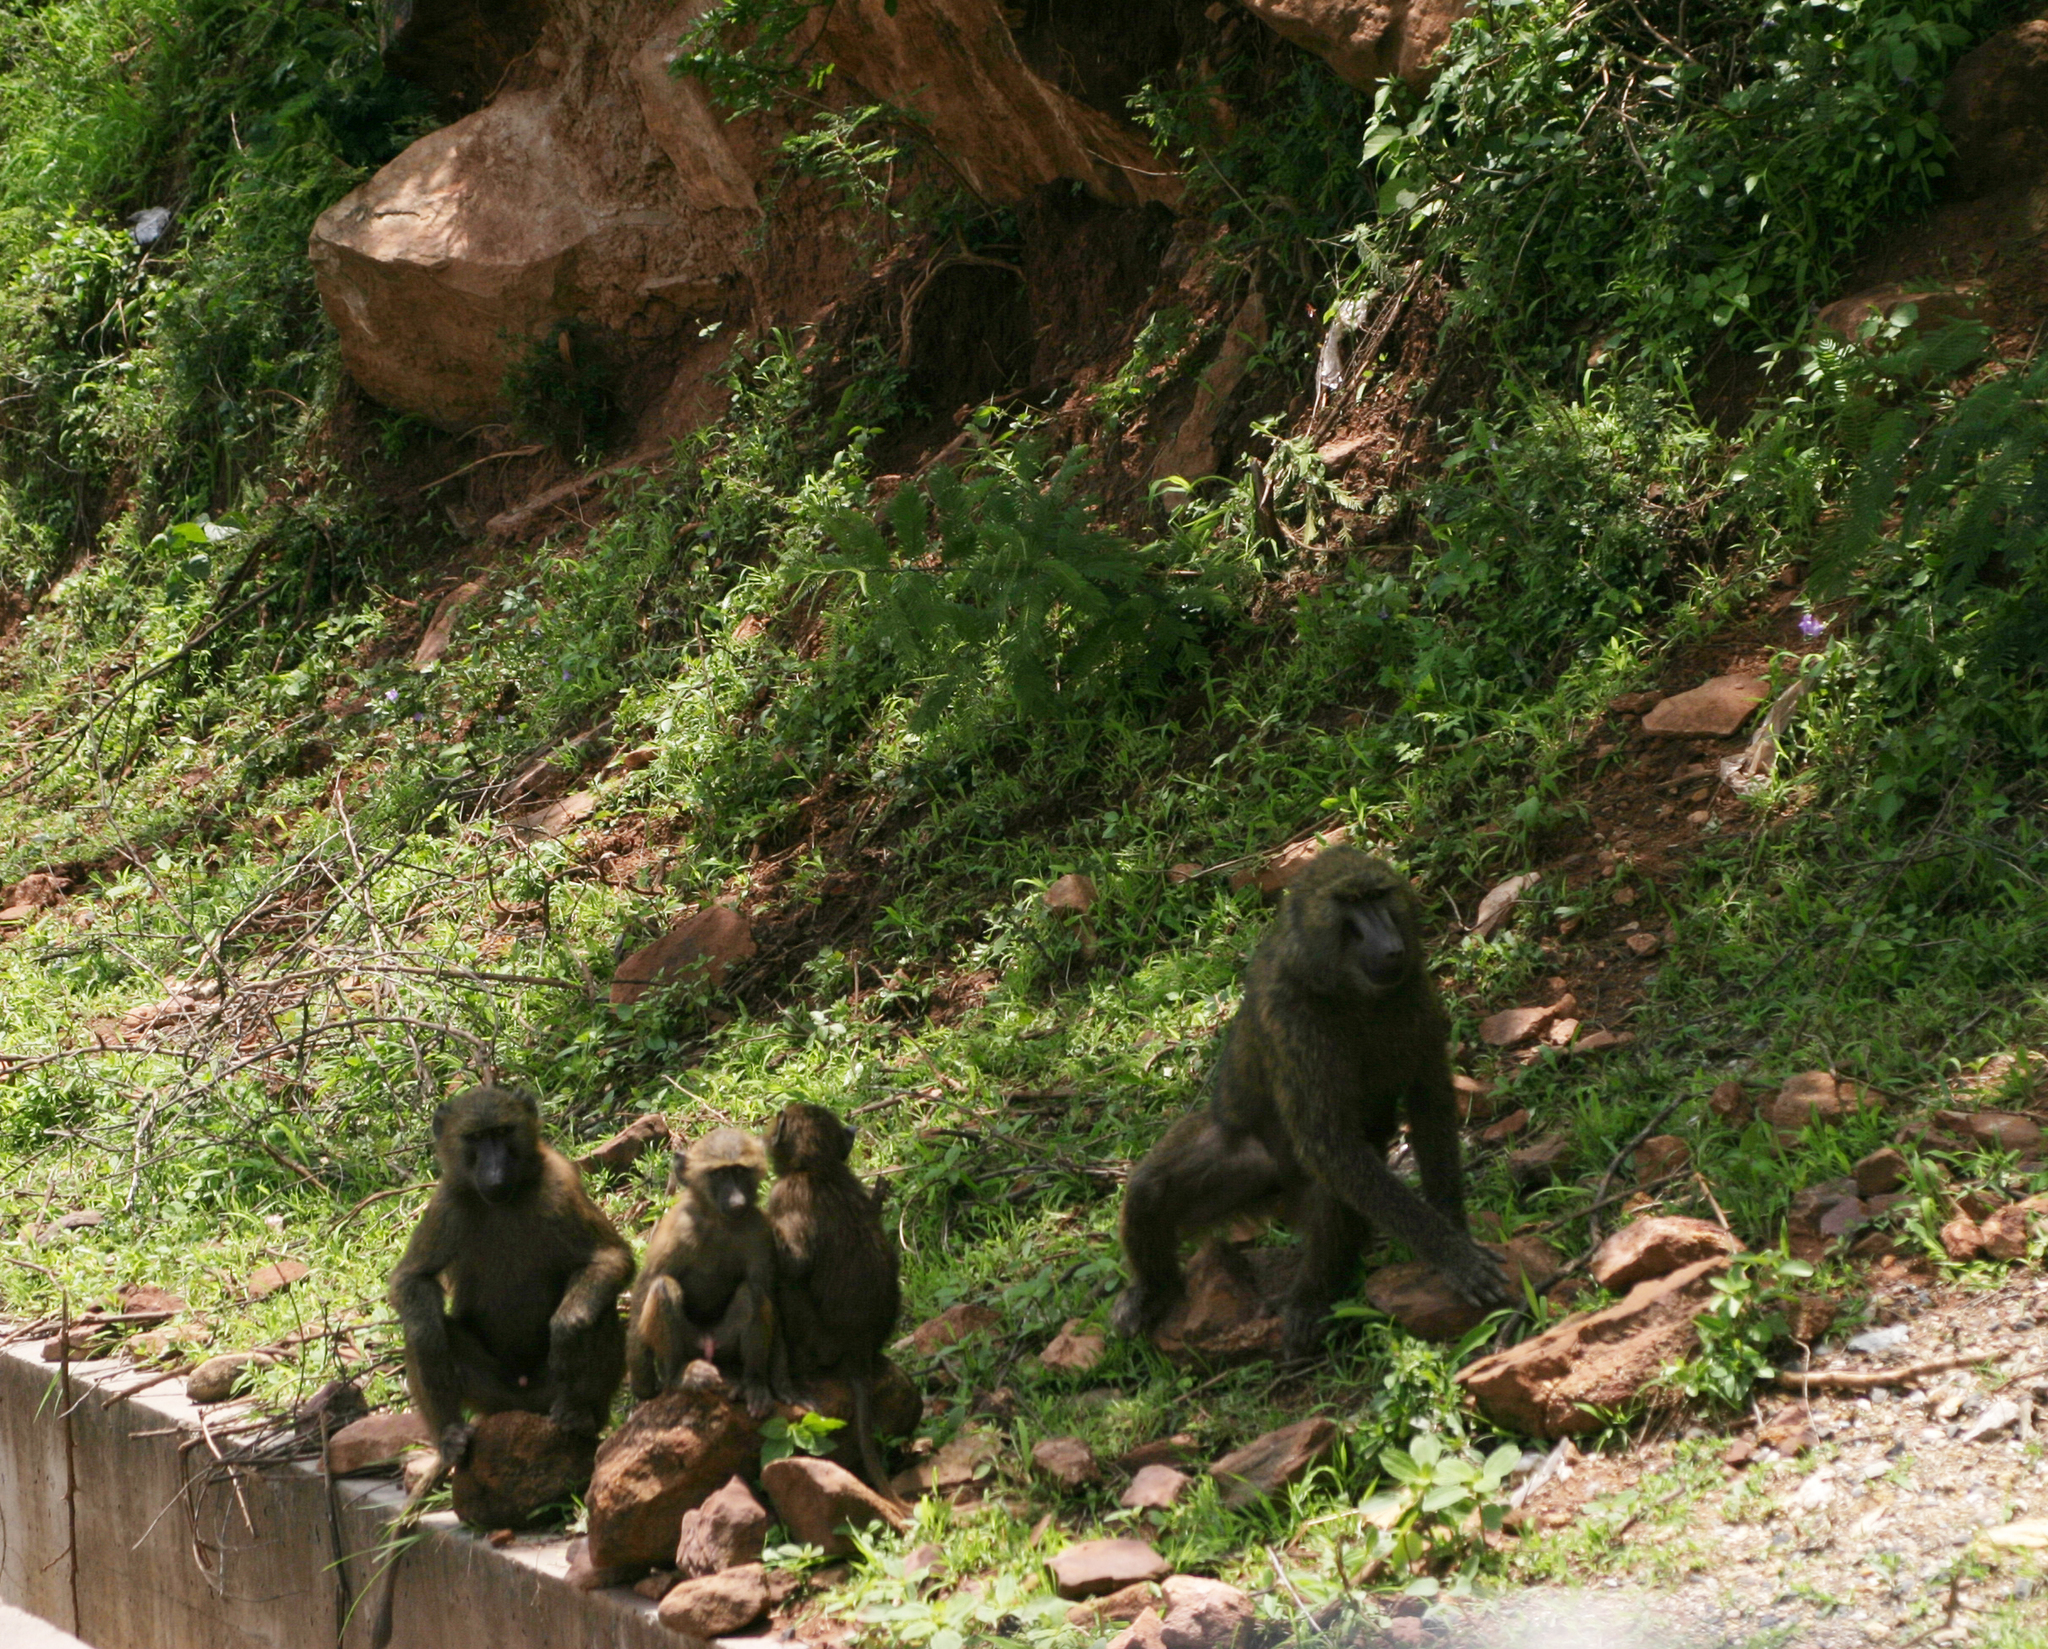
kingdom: Animalia
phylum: Chordata
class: Mammalia
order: Primates
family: Cercopithecidae
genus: Papio
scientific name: Papio anubis
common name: Olive baboon
